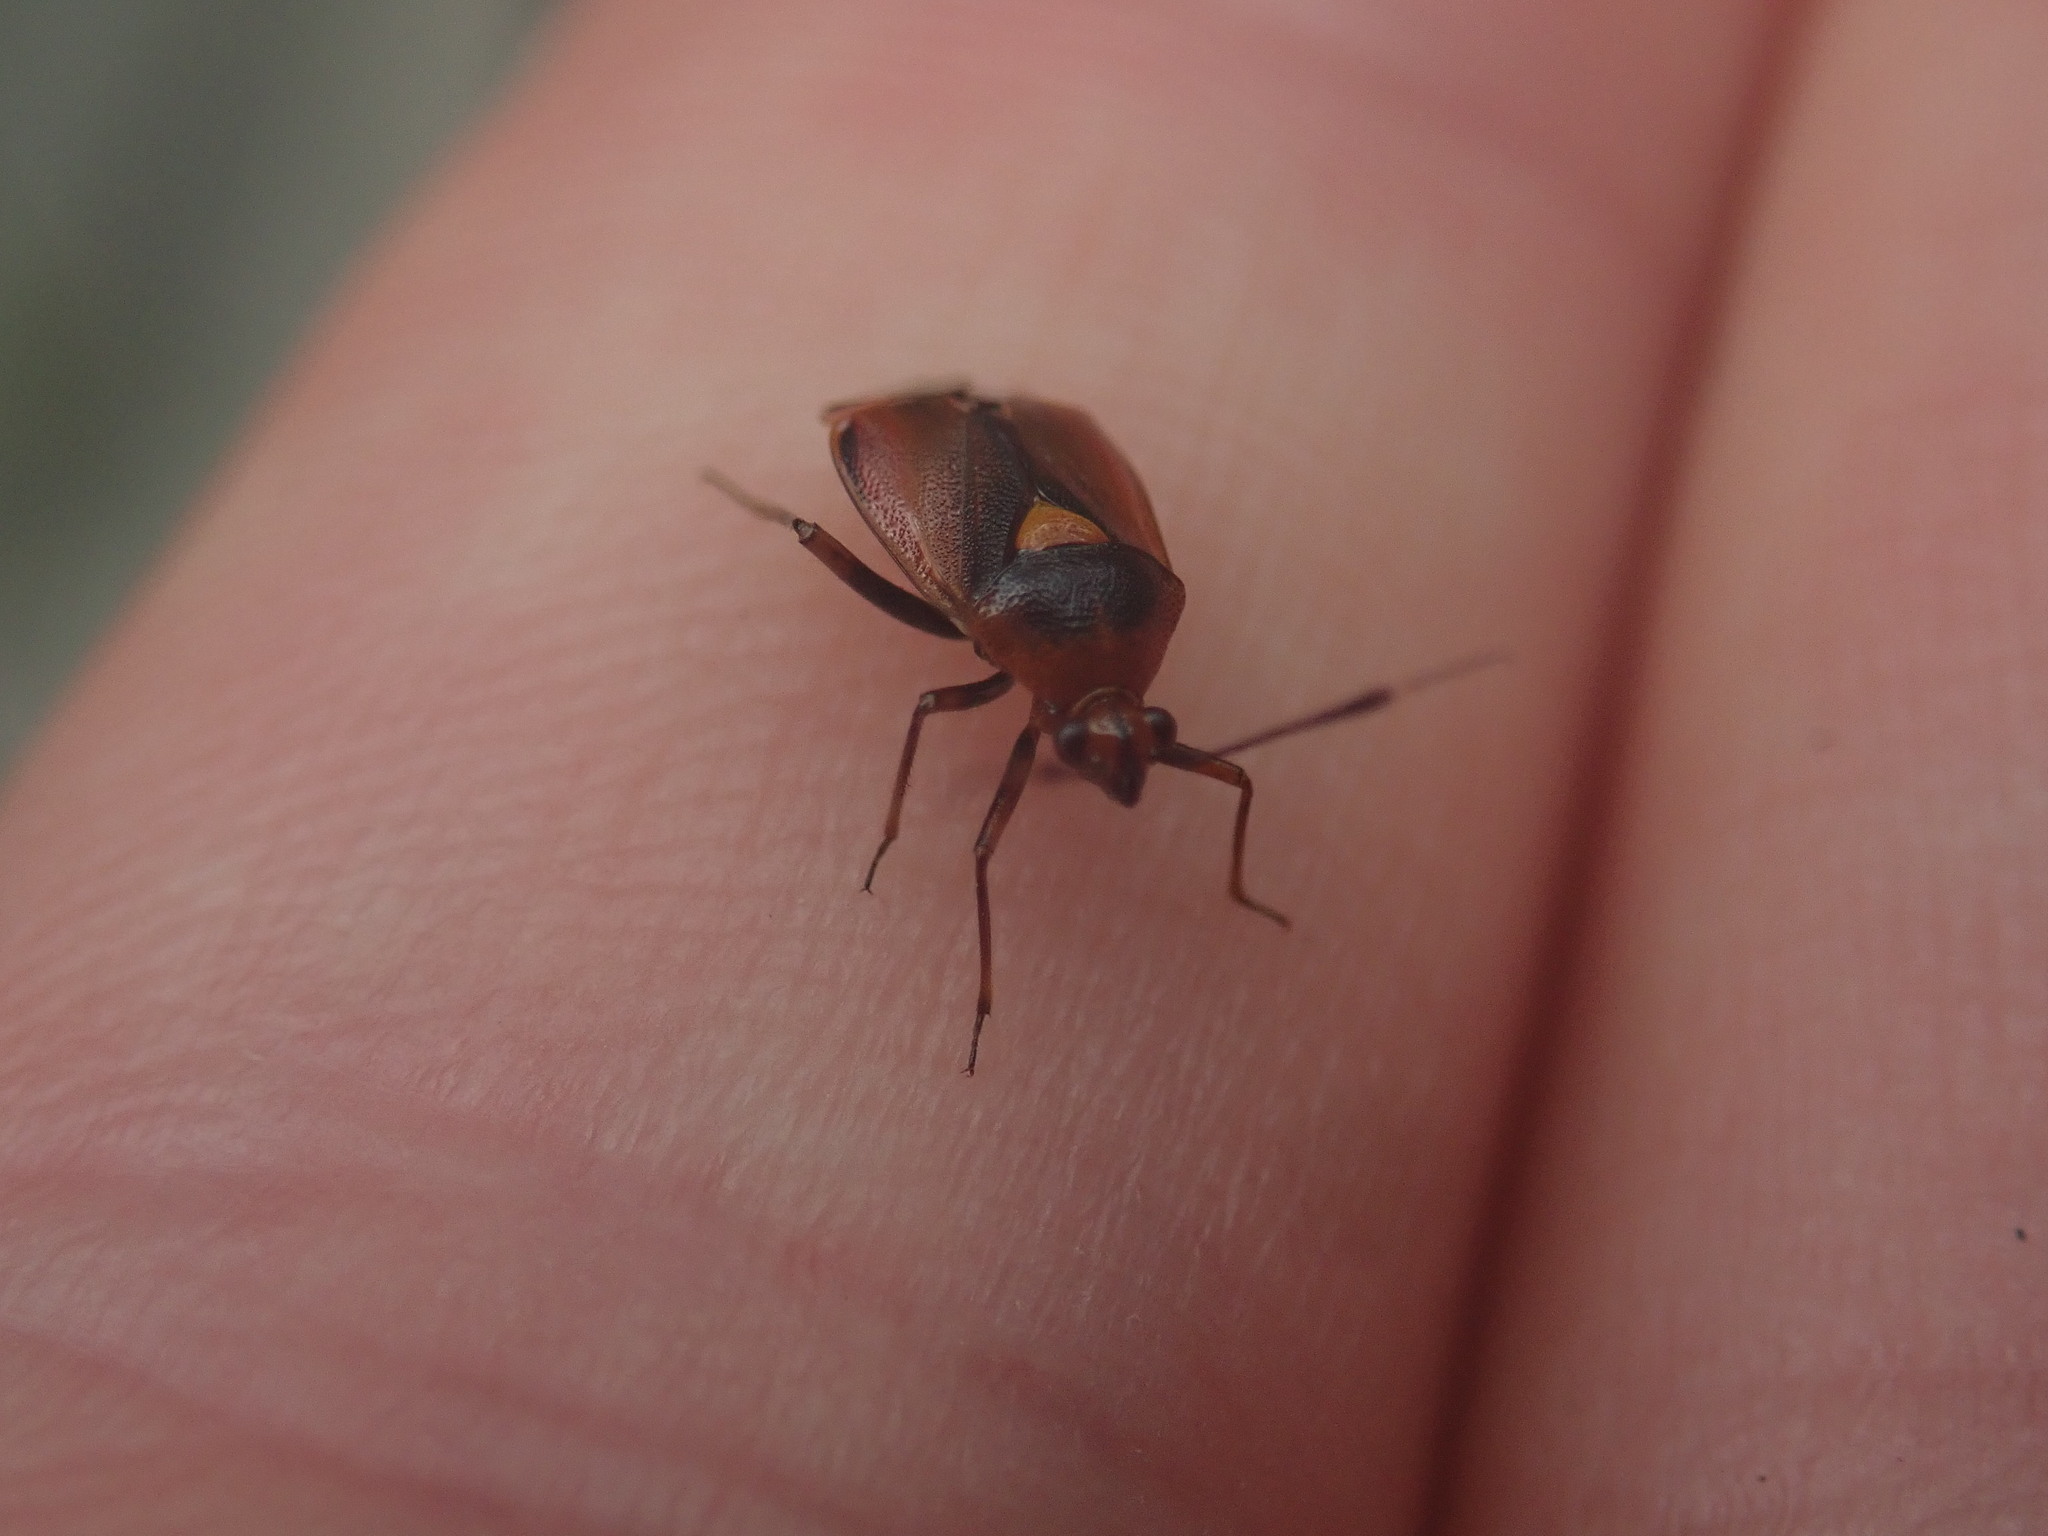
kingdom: Animalia
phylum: Arthropoda
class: Insecta
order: Hemiptera
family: Miridae
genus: Deraeocoris
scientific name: Deraeocoris ruber
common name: Plant bug
